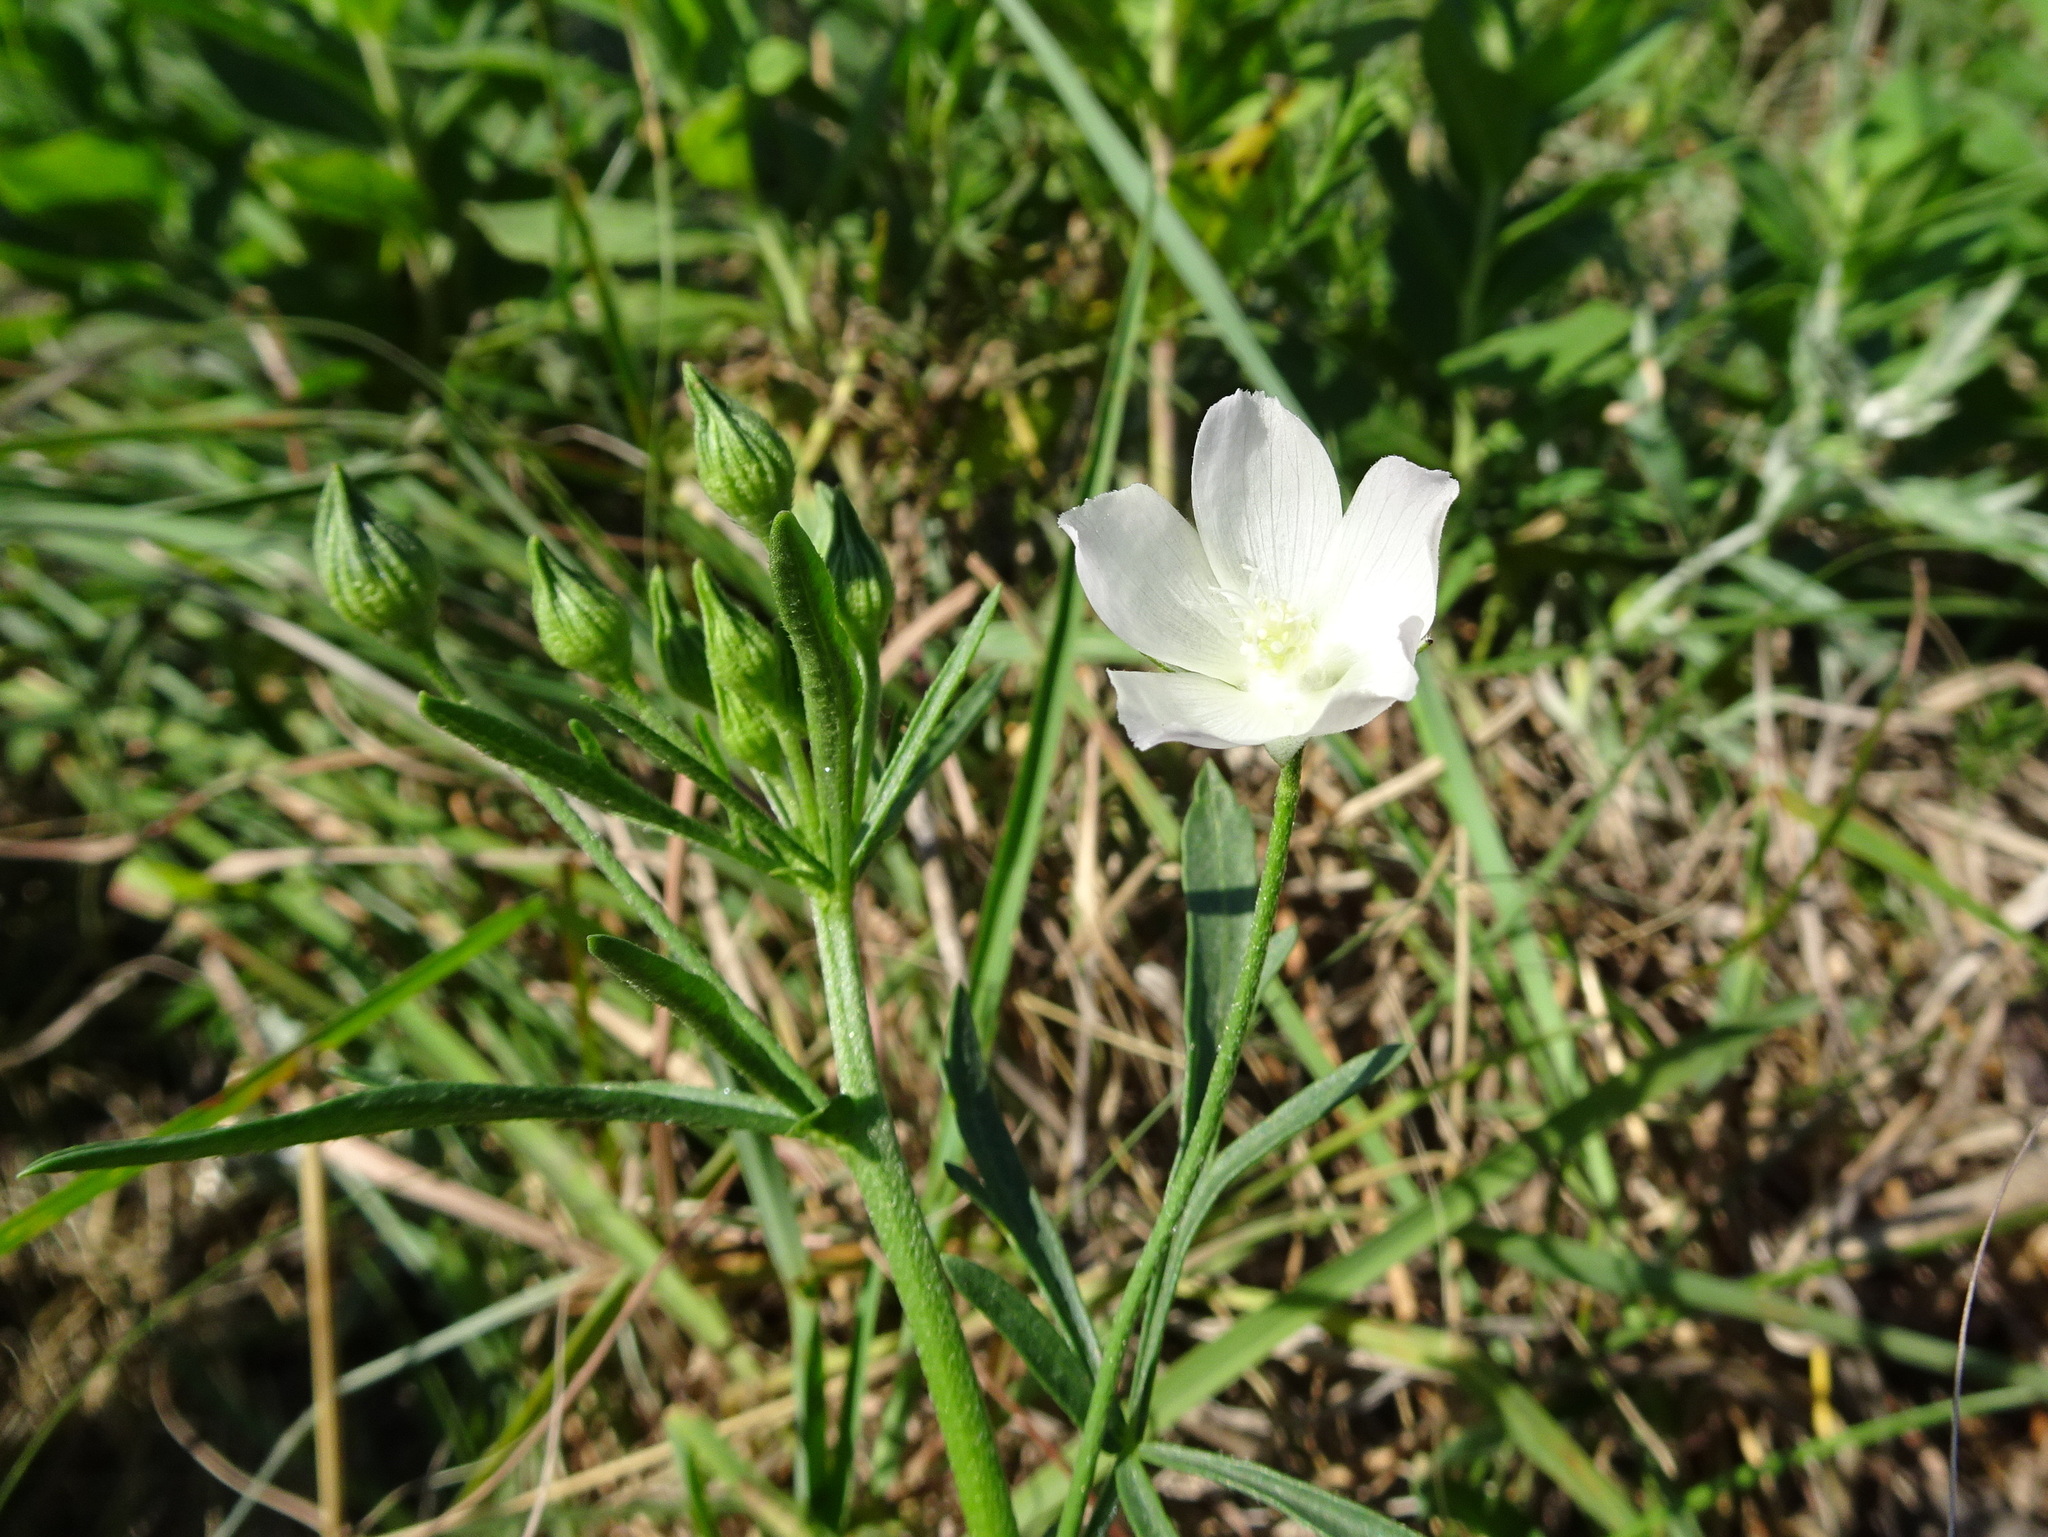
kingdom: Plantae
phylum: Tracheophyta
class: Magnoliopsida
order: Malvales
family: Malvaceae
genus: Callirhoe
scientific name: Callirhoe alcaeoides
